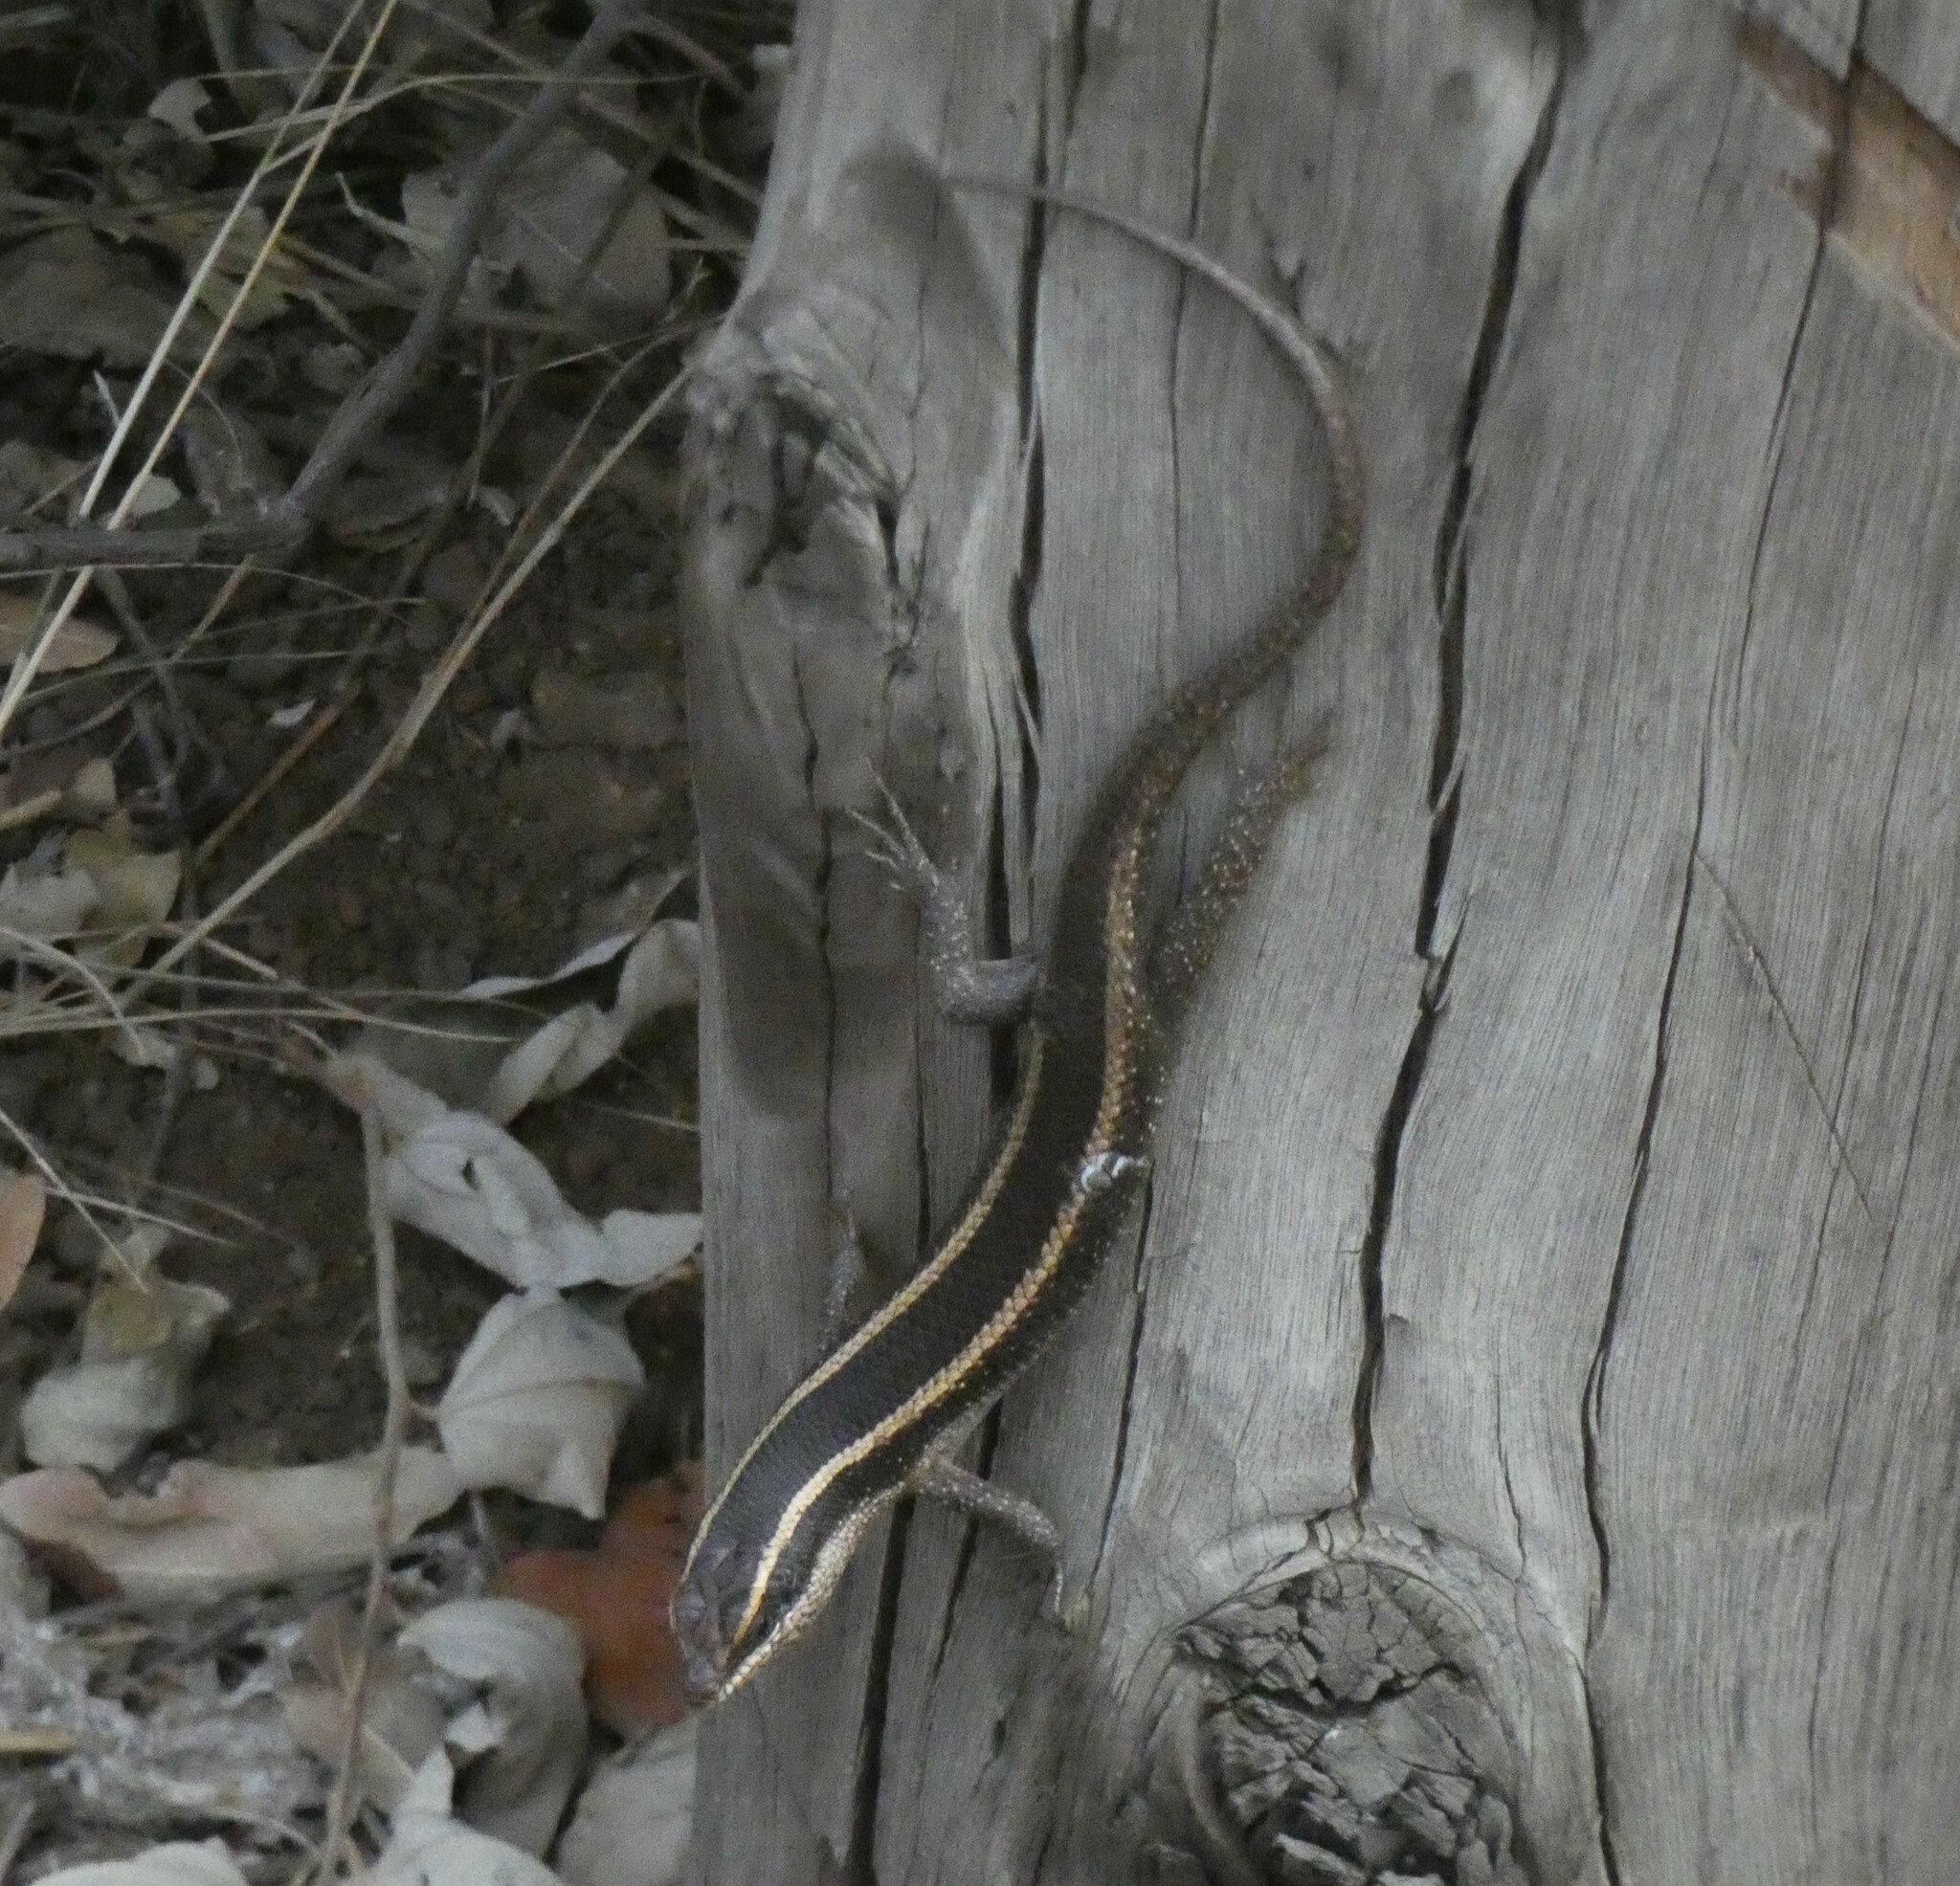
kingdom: Animalia
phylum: Chordata
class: Squamata
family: Scincidae
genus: Trachylepis
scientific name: Trachylepis striata
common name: African striped mabuya
